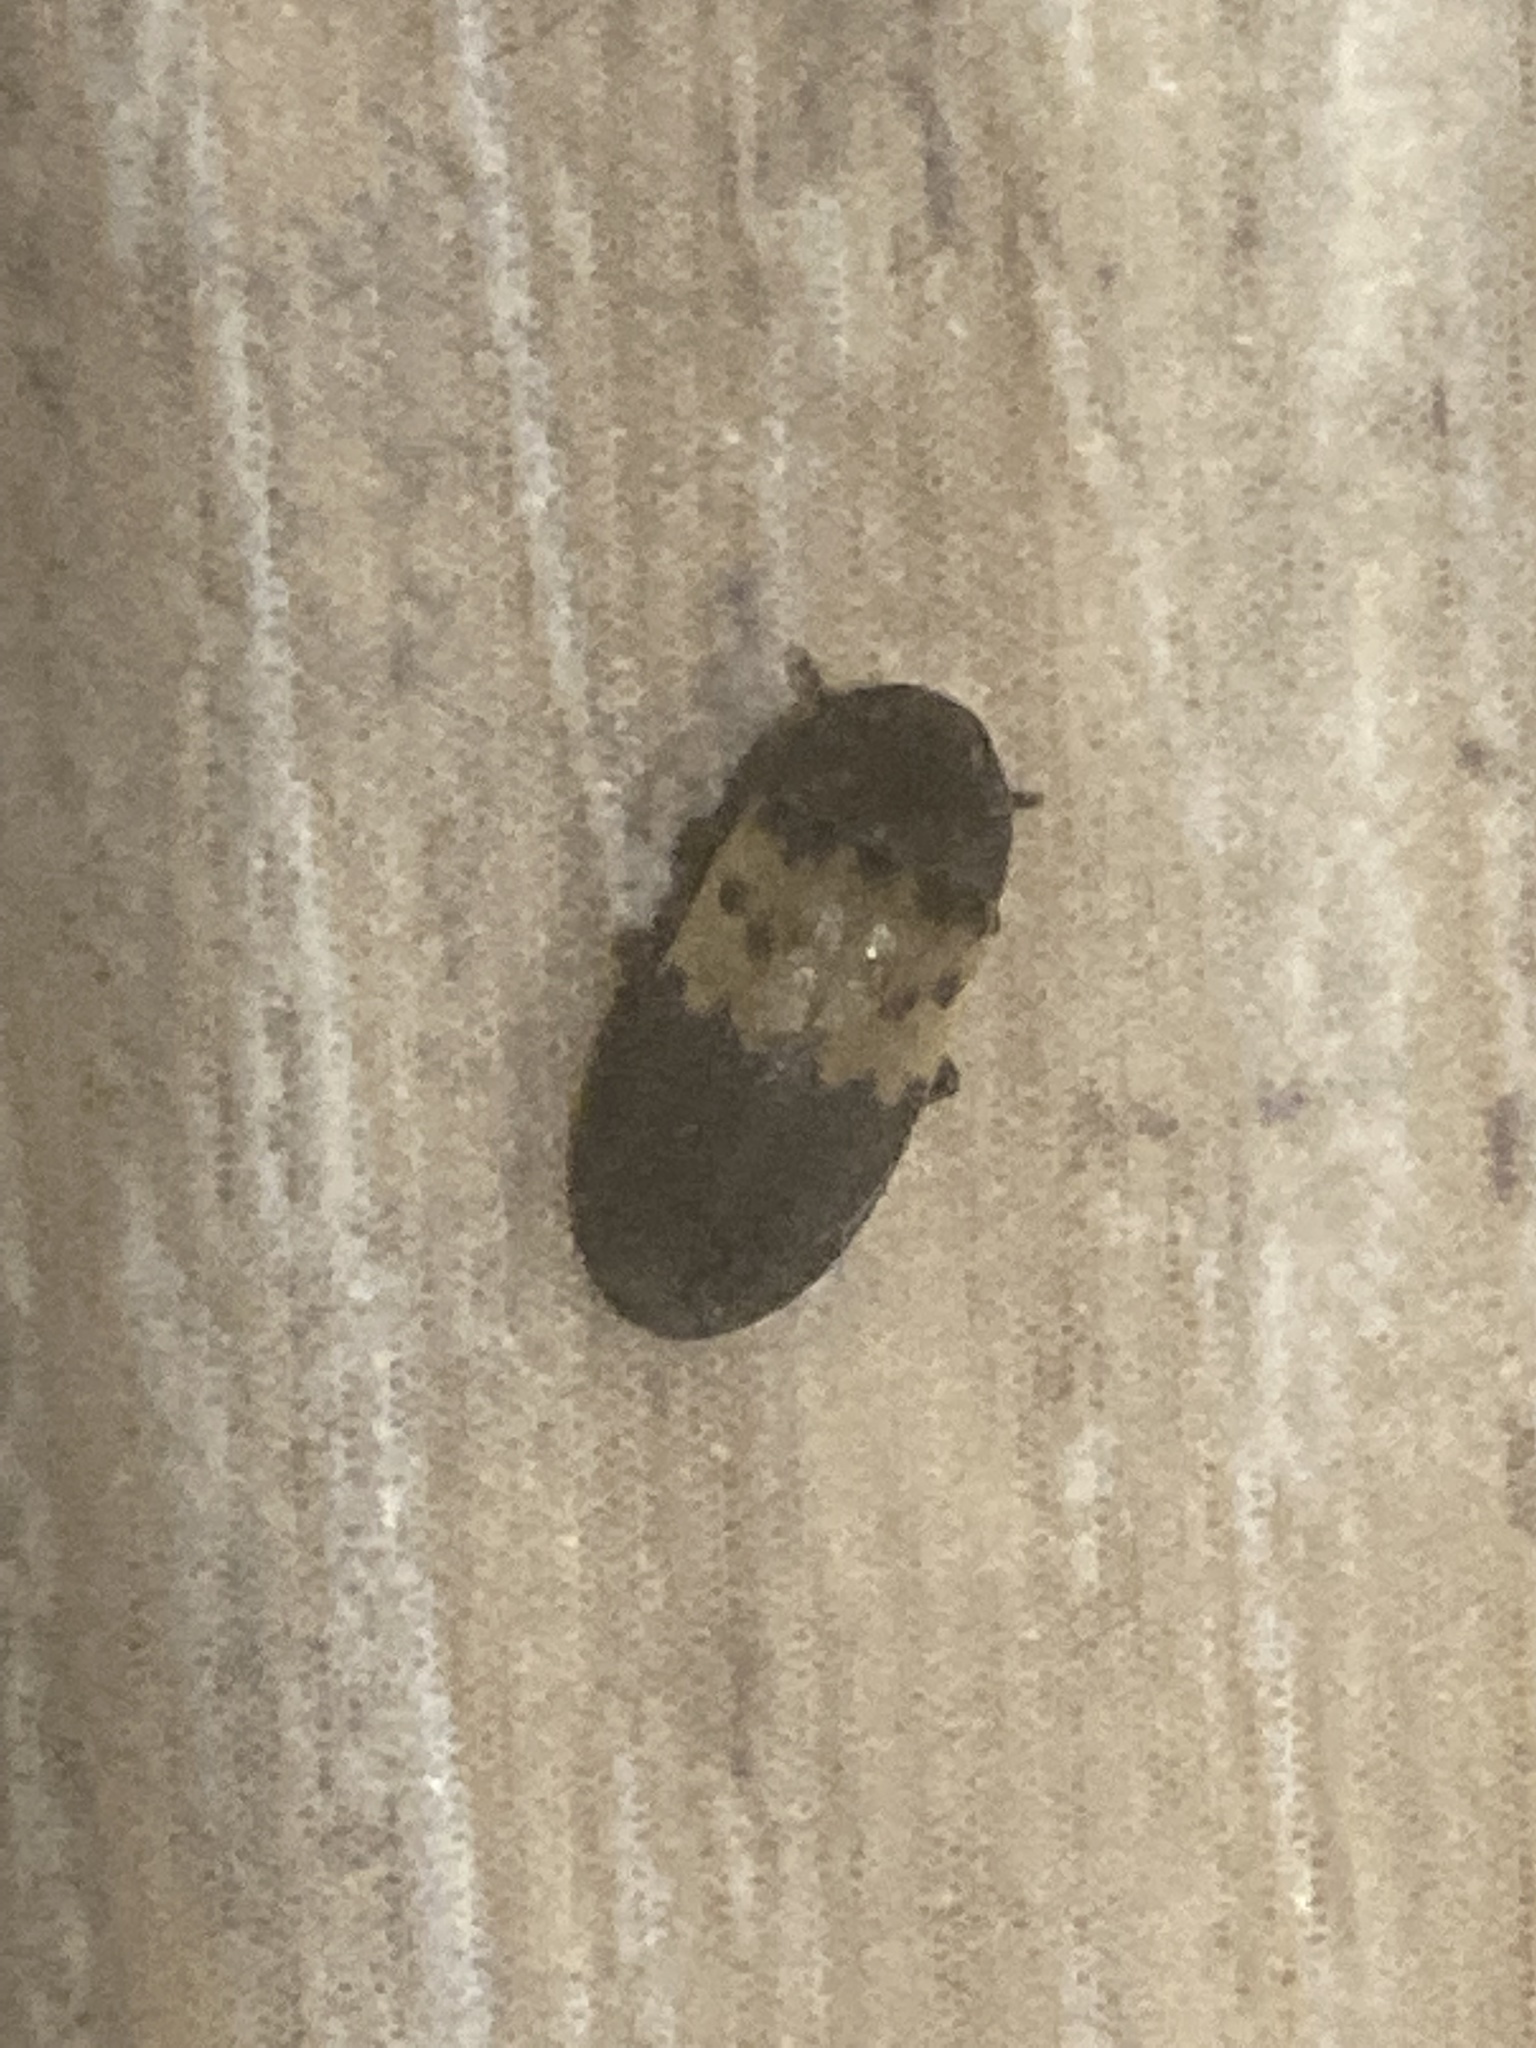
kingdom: Animalia
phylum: Arthropoda
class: Insecta
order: Coleoptera
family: Dermestidae
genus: Dermestes
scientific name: Dermestes lardarius
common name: Larder beetle
